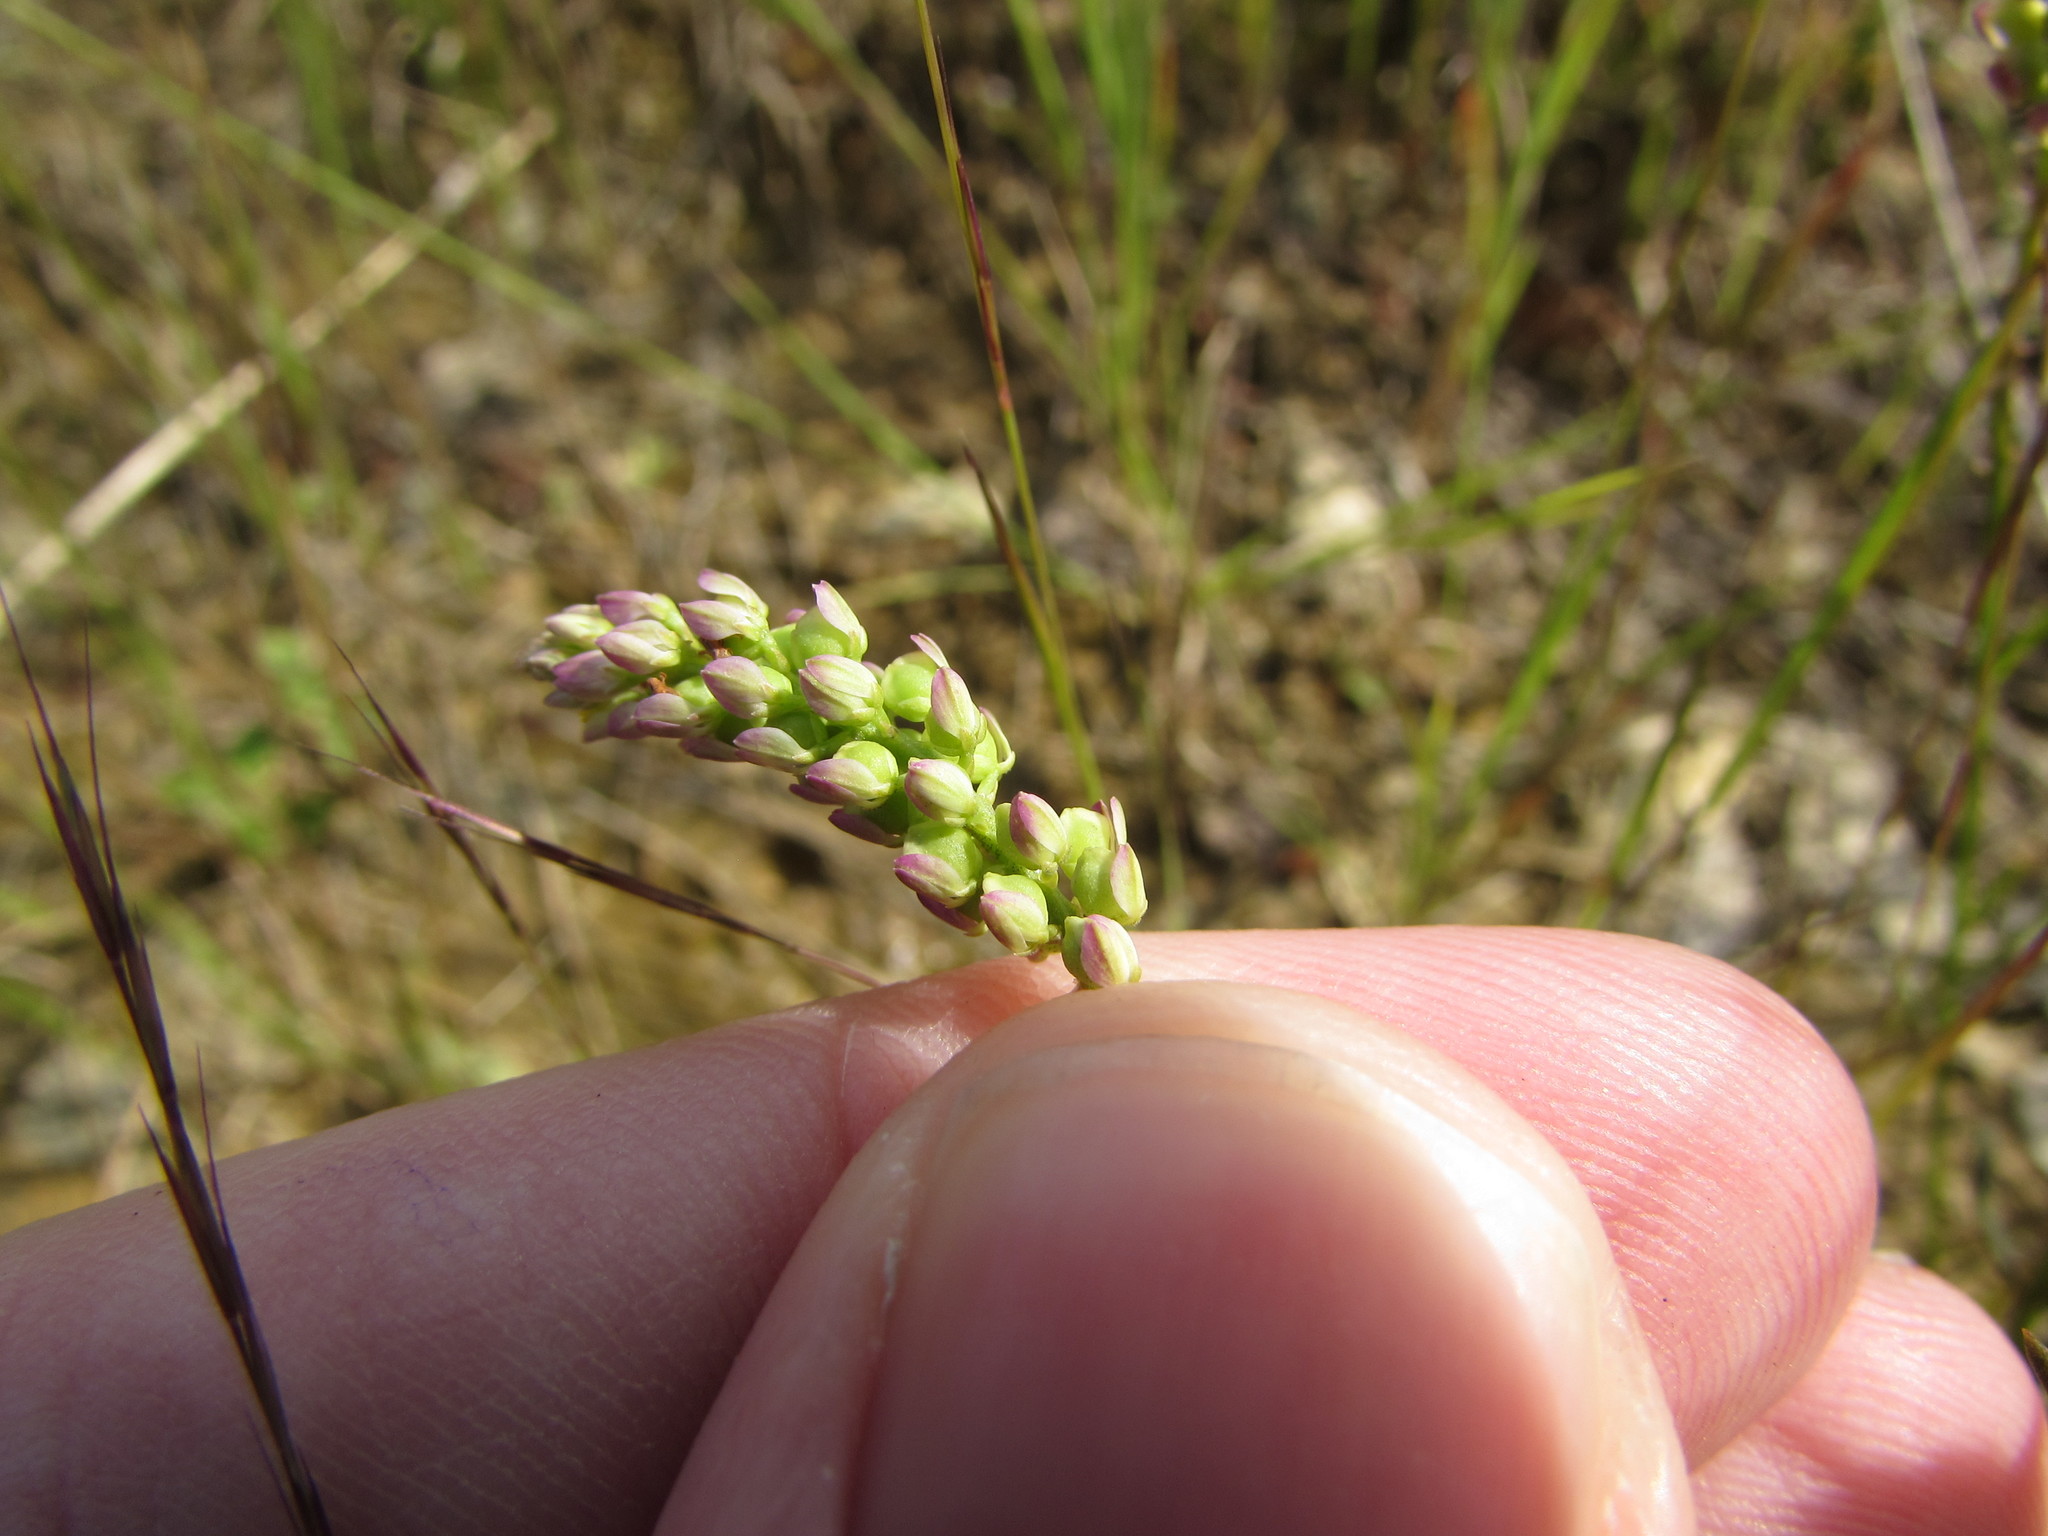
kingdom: Plantae
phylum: Tracheophyta
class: Magnoliopsida
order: Fabales
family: Polygalaceae
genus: Polygala
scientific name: Polygala nuttallii
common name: Nuttall's milkwort
